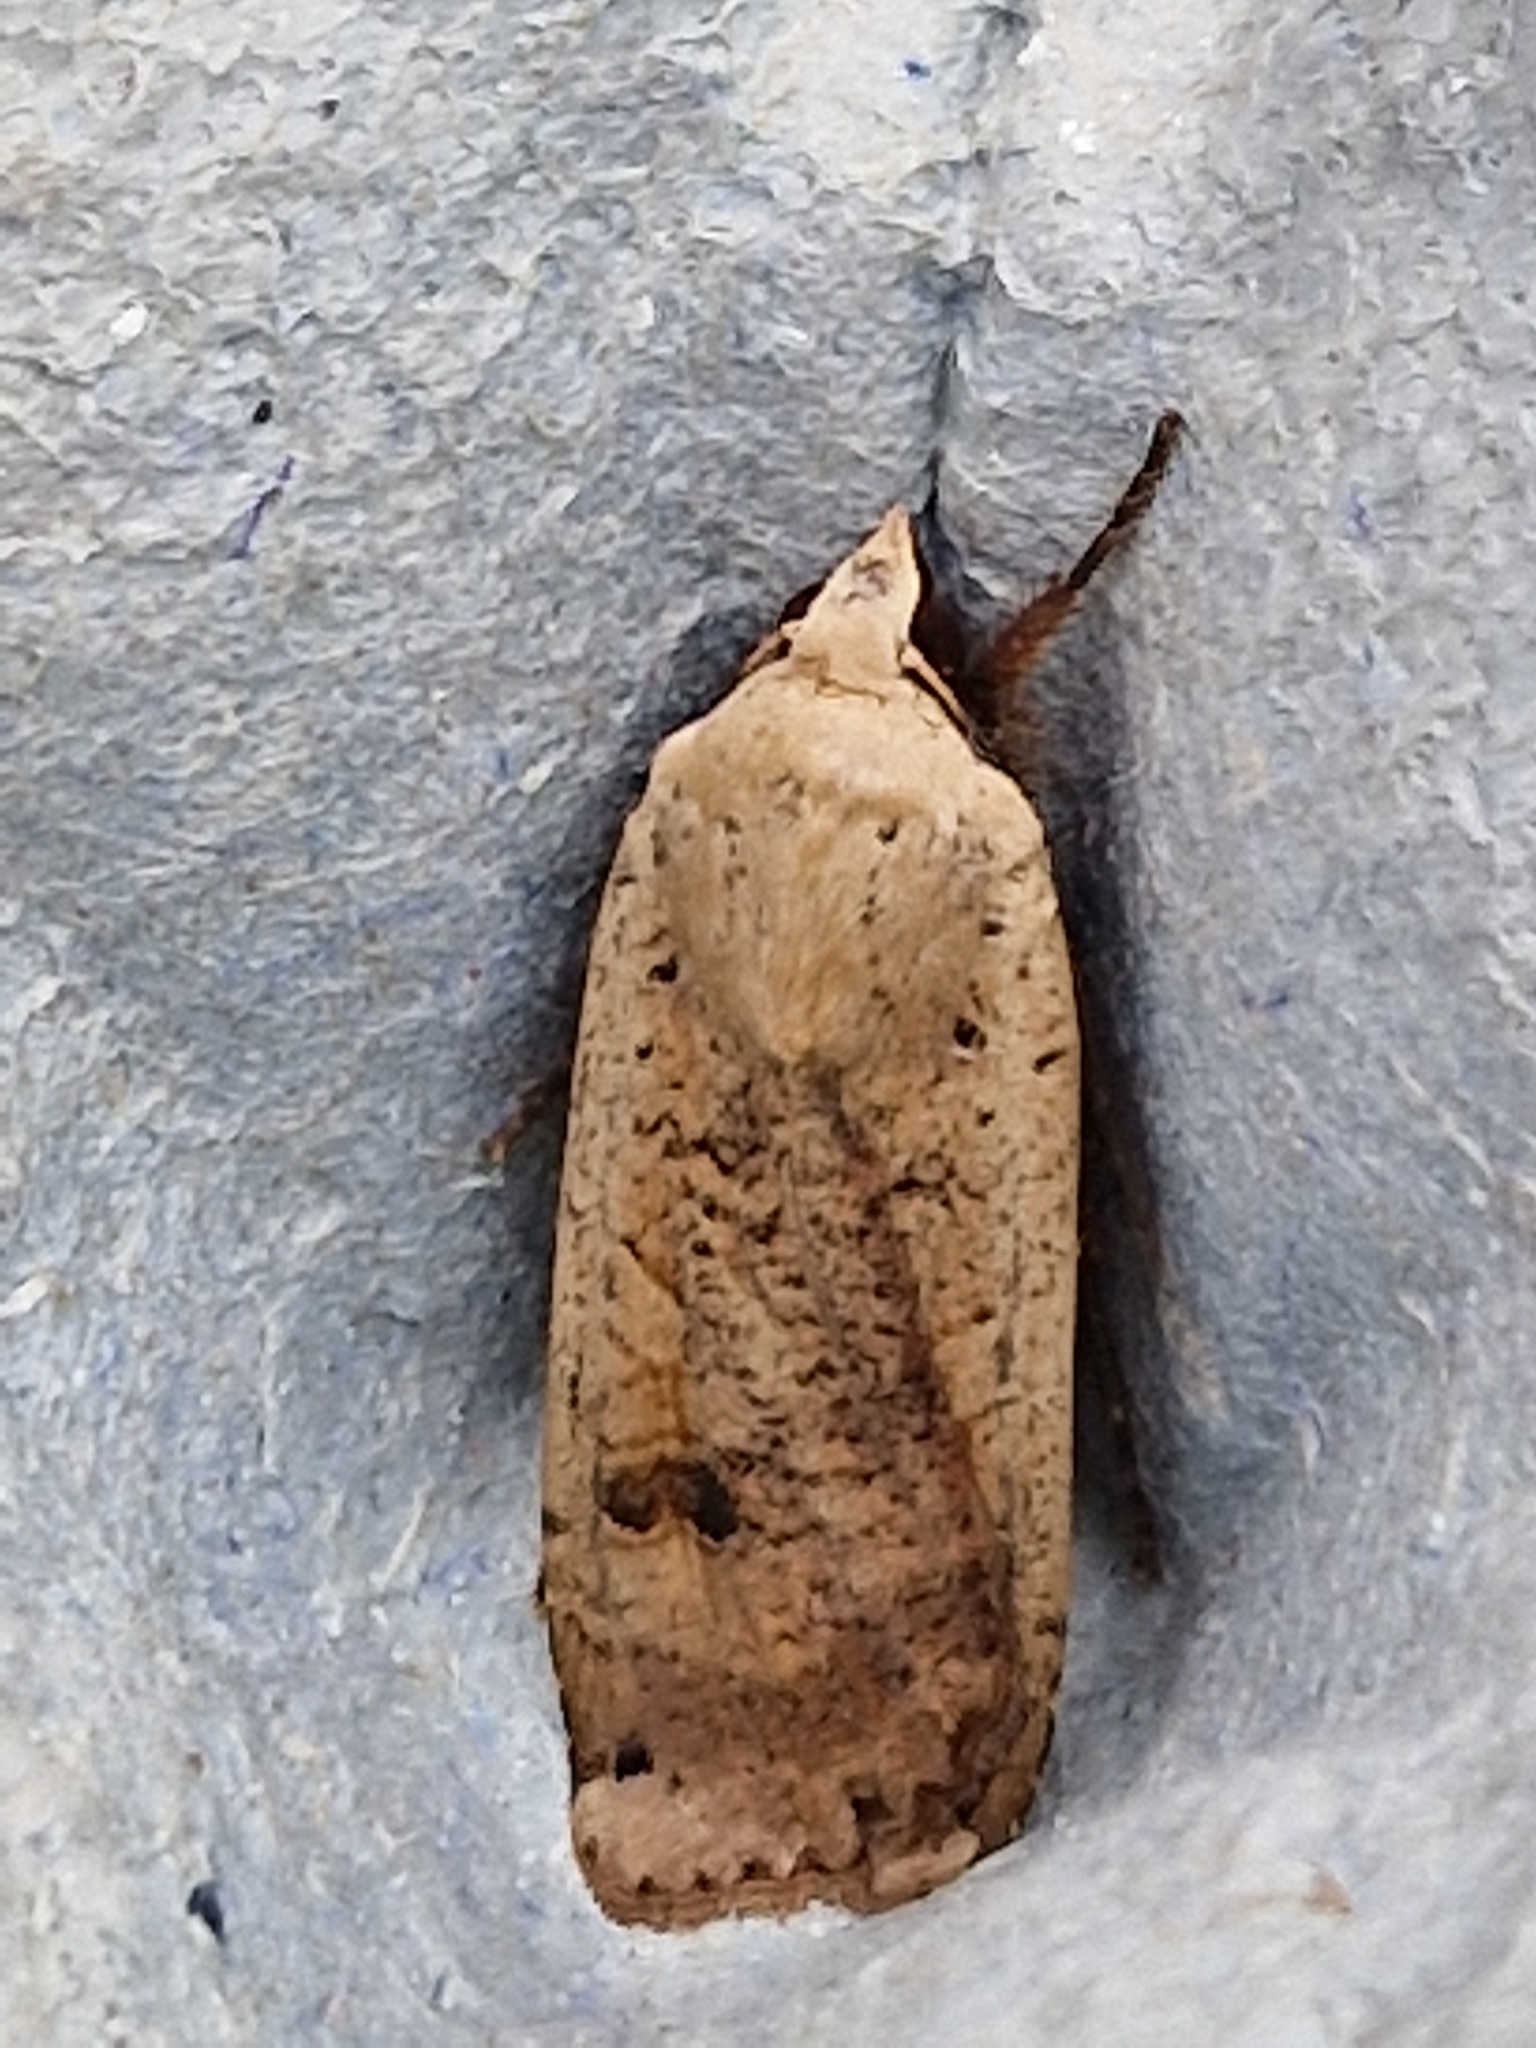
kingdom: Animalia
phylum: Arthropoda
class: Insecta
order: Lepidoptera
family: Noctuidae
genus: Noctua
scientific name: Noctua pronuba
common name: Large yellow underwing
